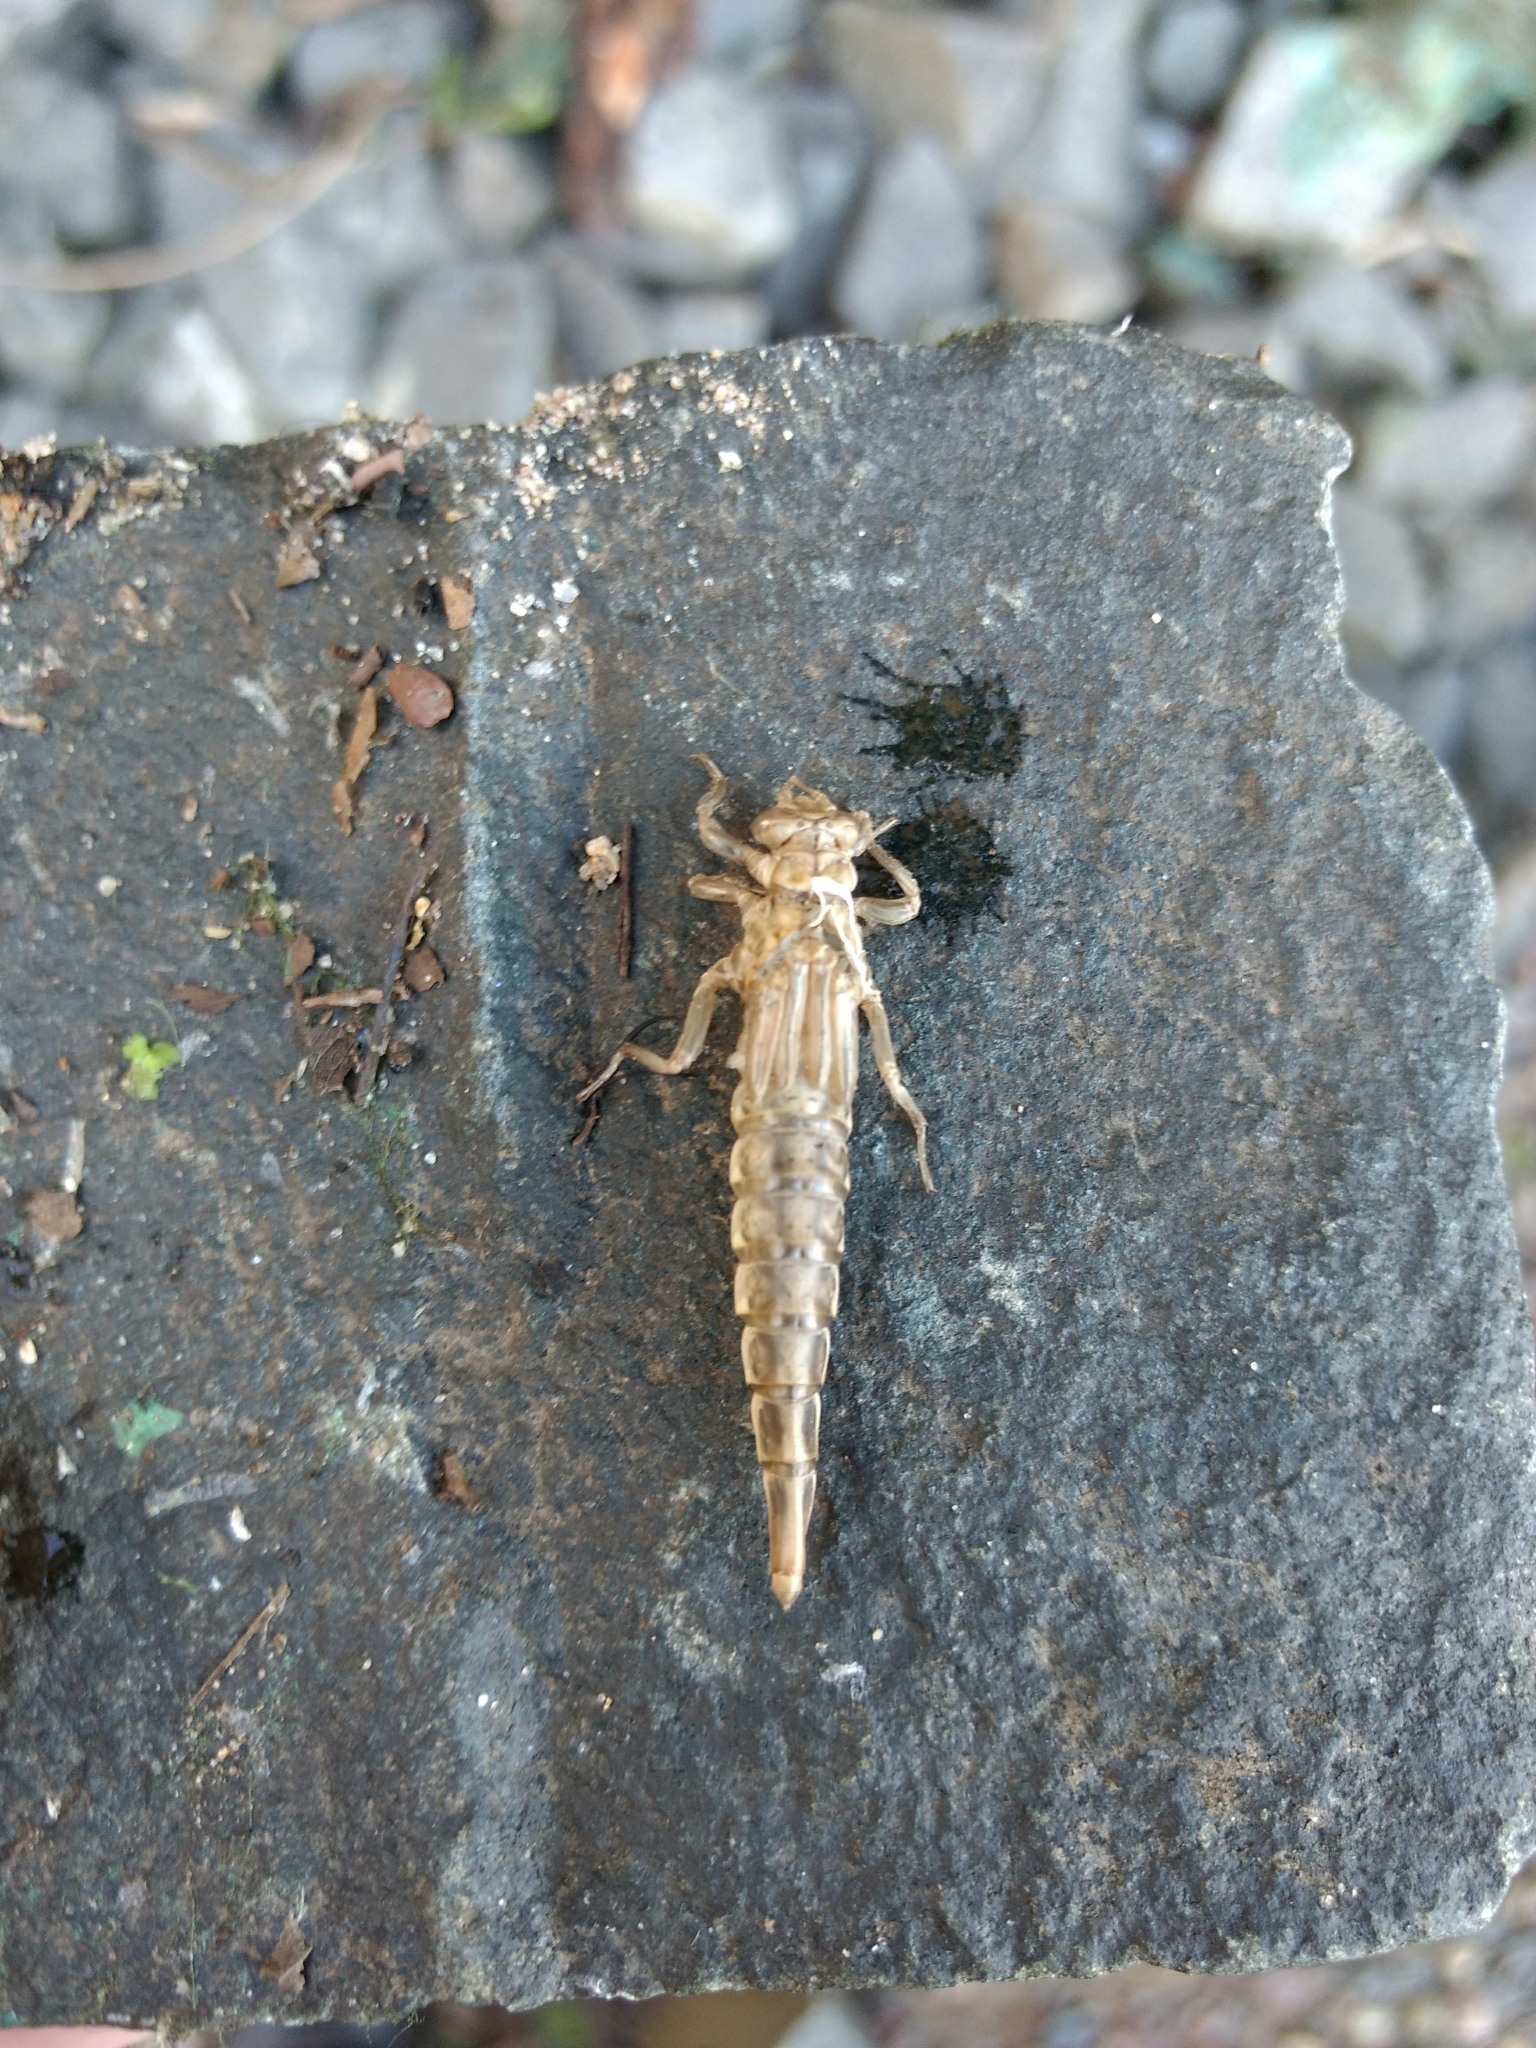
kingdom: Animalia
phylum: Arthropoda
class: Insecta
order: Odonata
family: Gomphidae
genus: Stylurus
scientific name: Stylurus spiniceps
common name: Arrow clubtail
